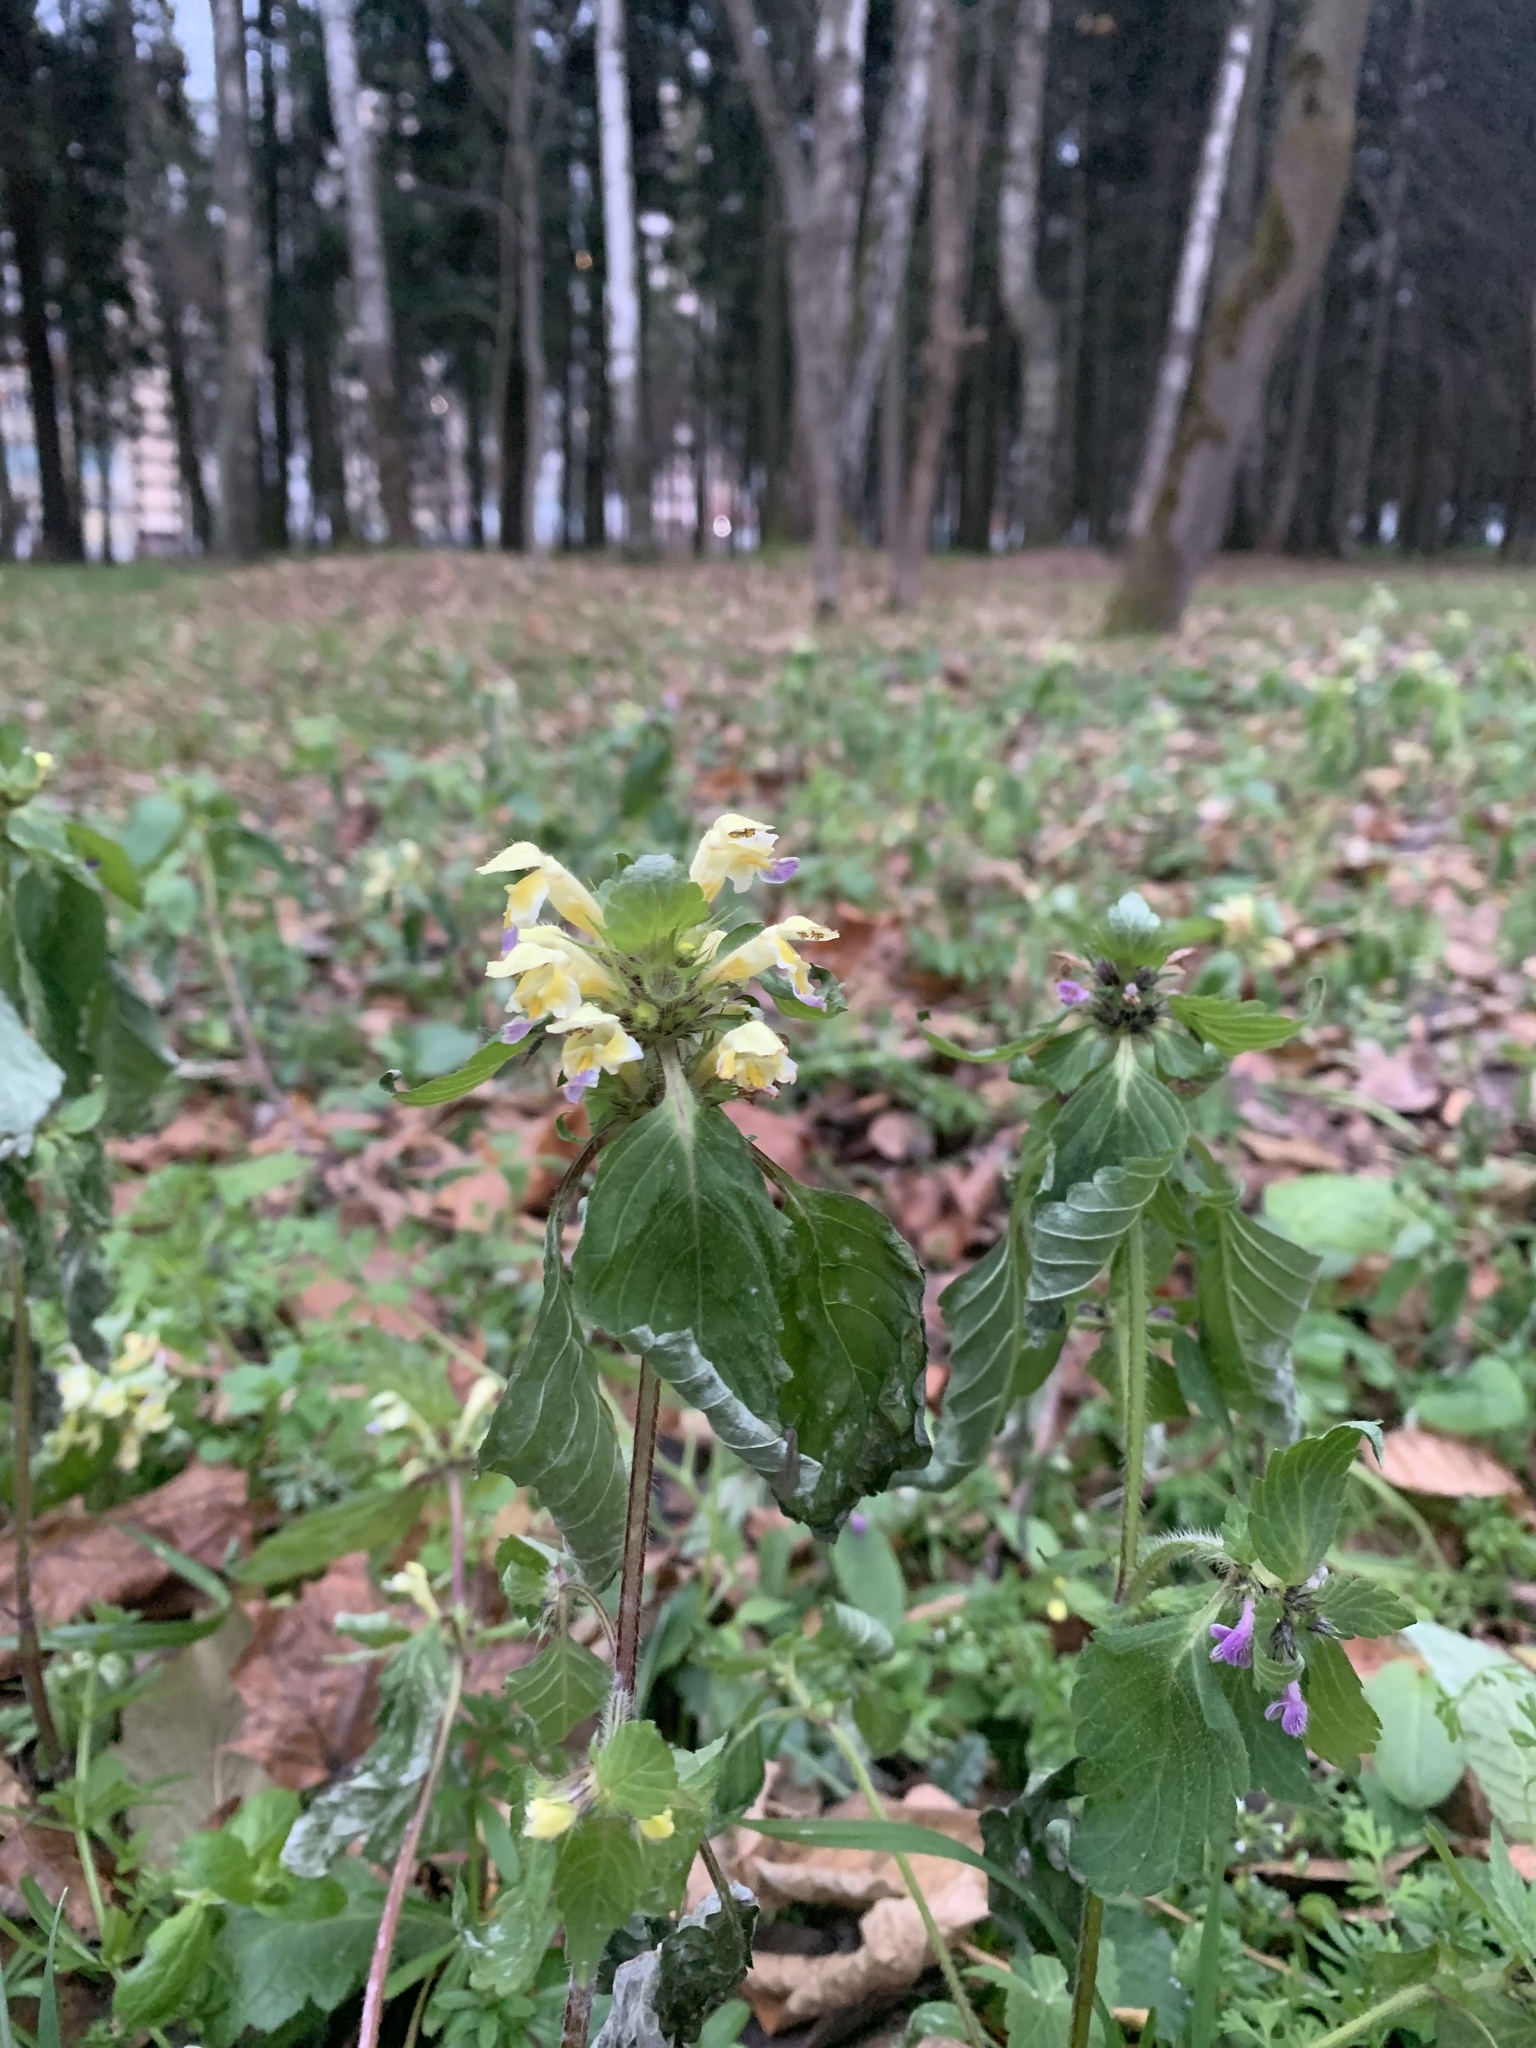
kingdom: Plantae
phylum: Tracheophyta
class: Magnoliopsida
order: Lamiales
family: Lamiaceae
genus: Galeopsis
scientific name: Galeopsis speciosa
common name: Large-flowered hemp-nettle
